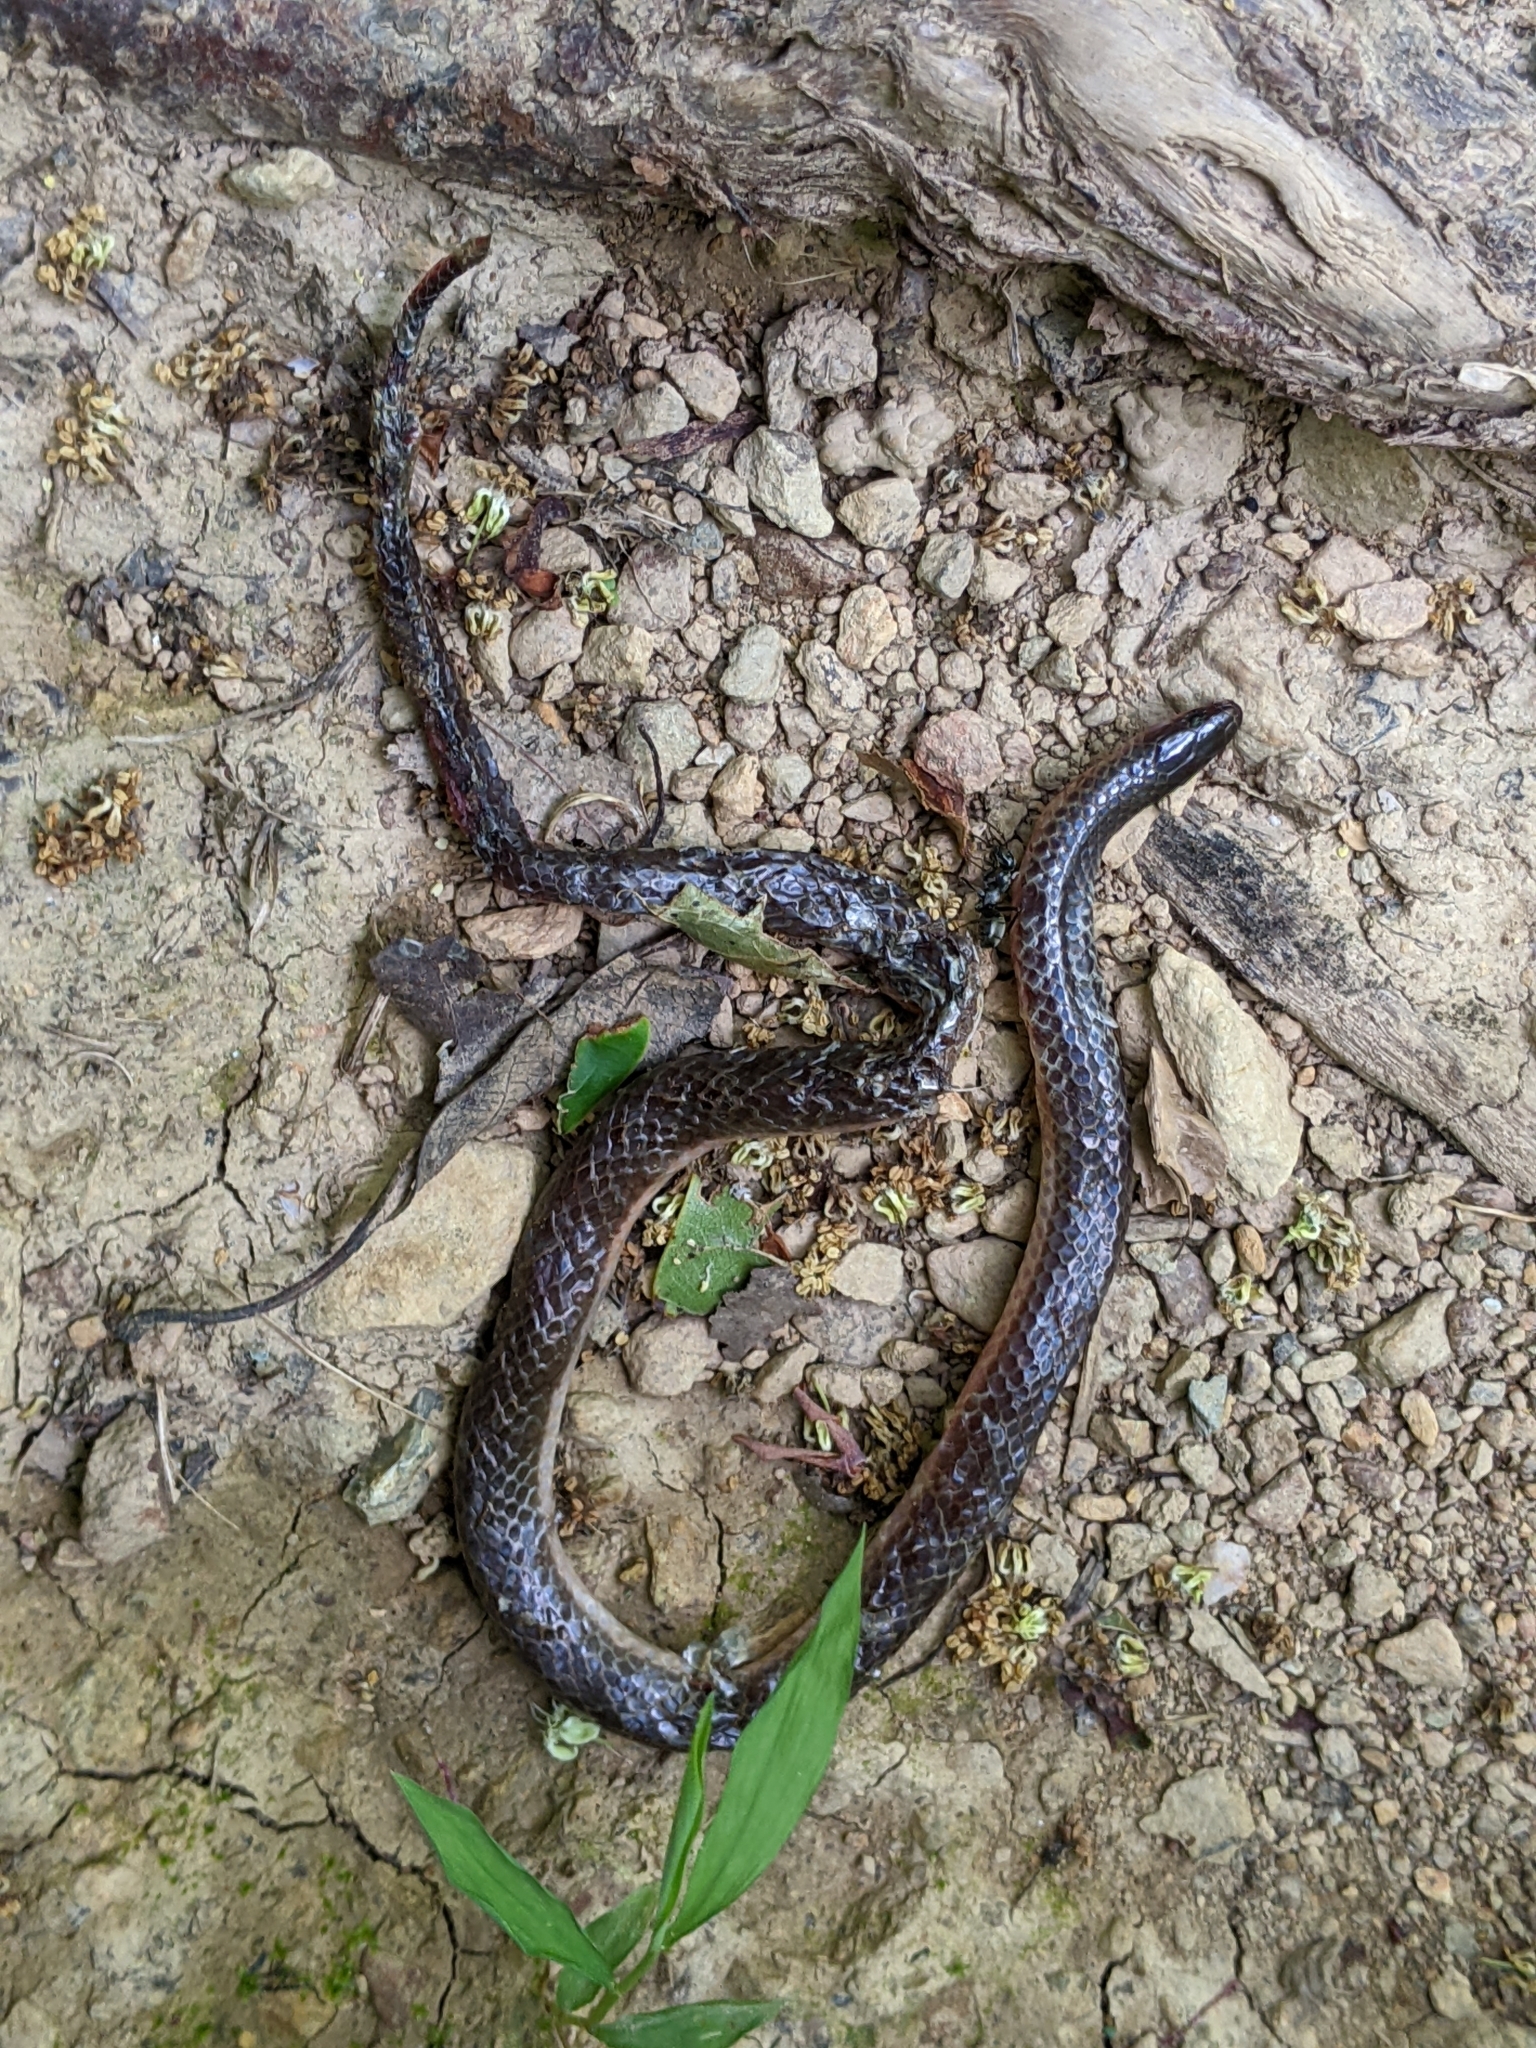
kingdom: Animalia
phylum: Chordata
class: Squamata
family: Colubridae
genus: Carphophis
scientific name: Carphophis amoenus
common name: Eastern worm snake
